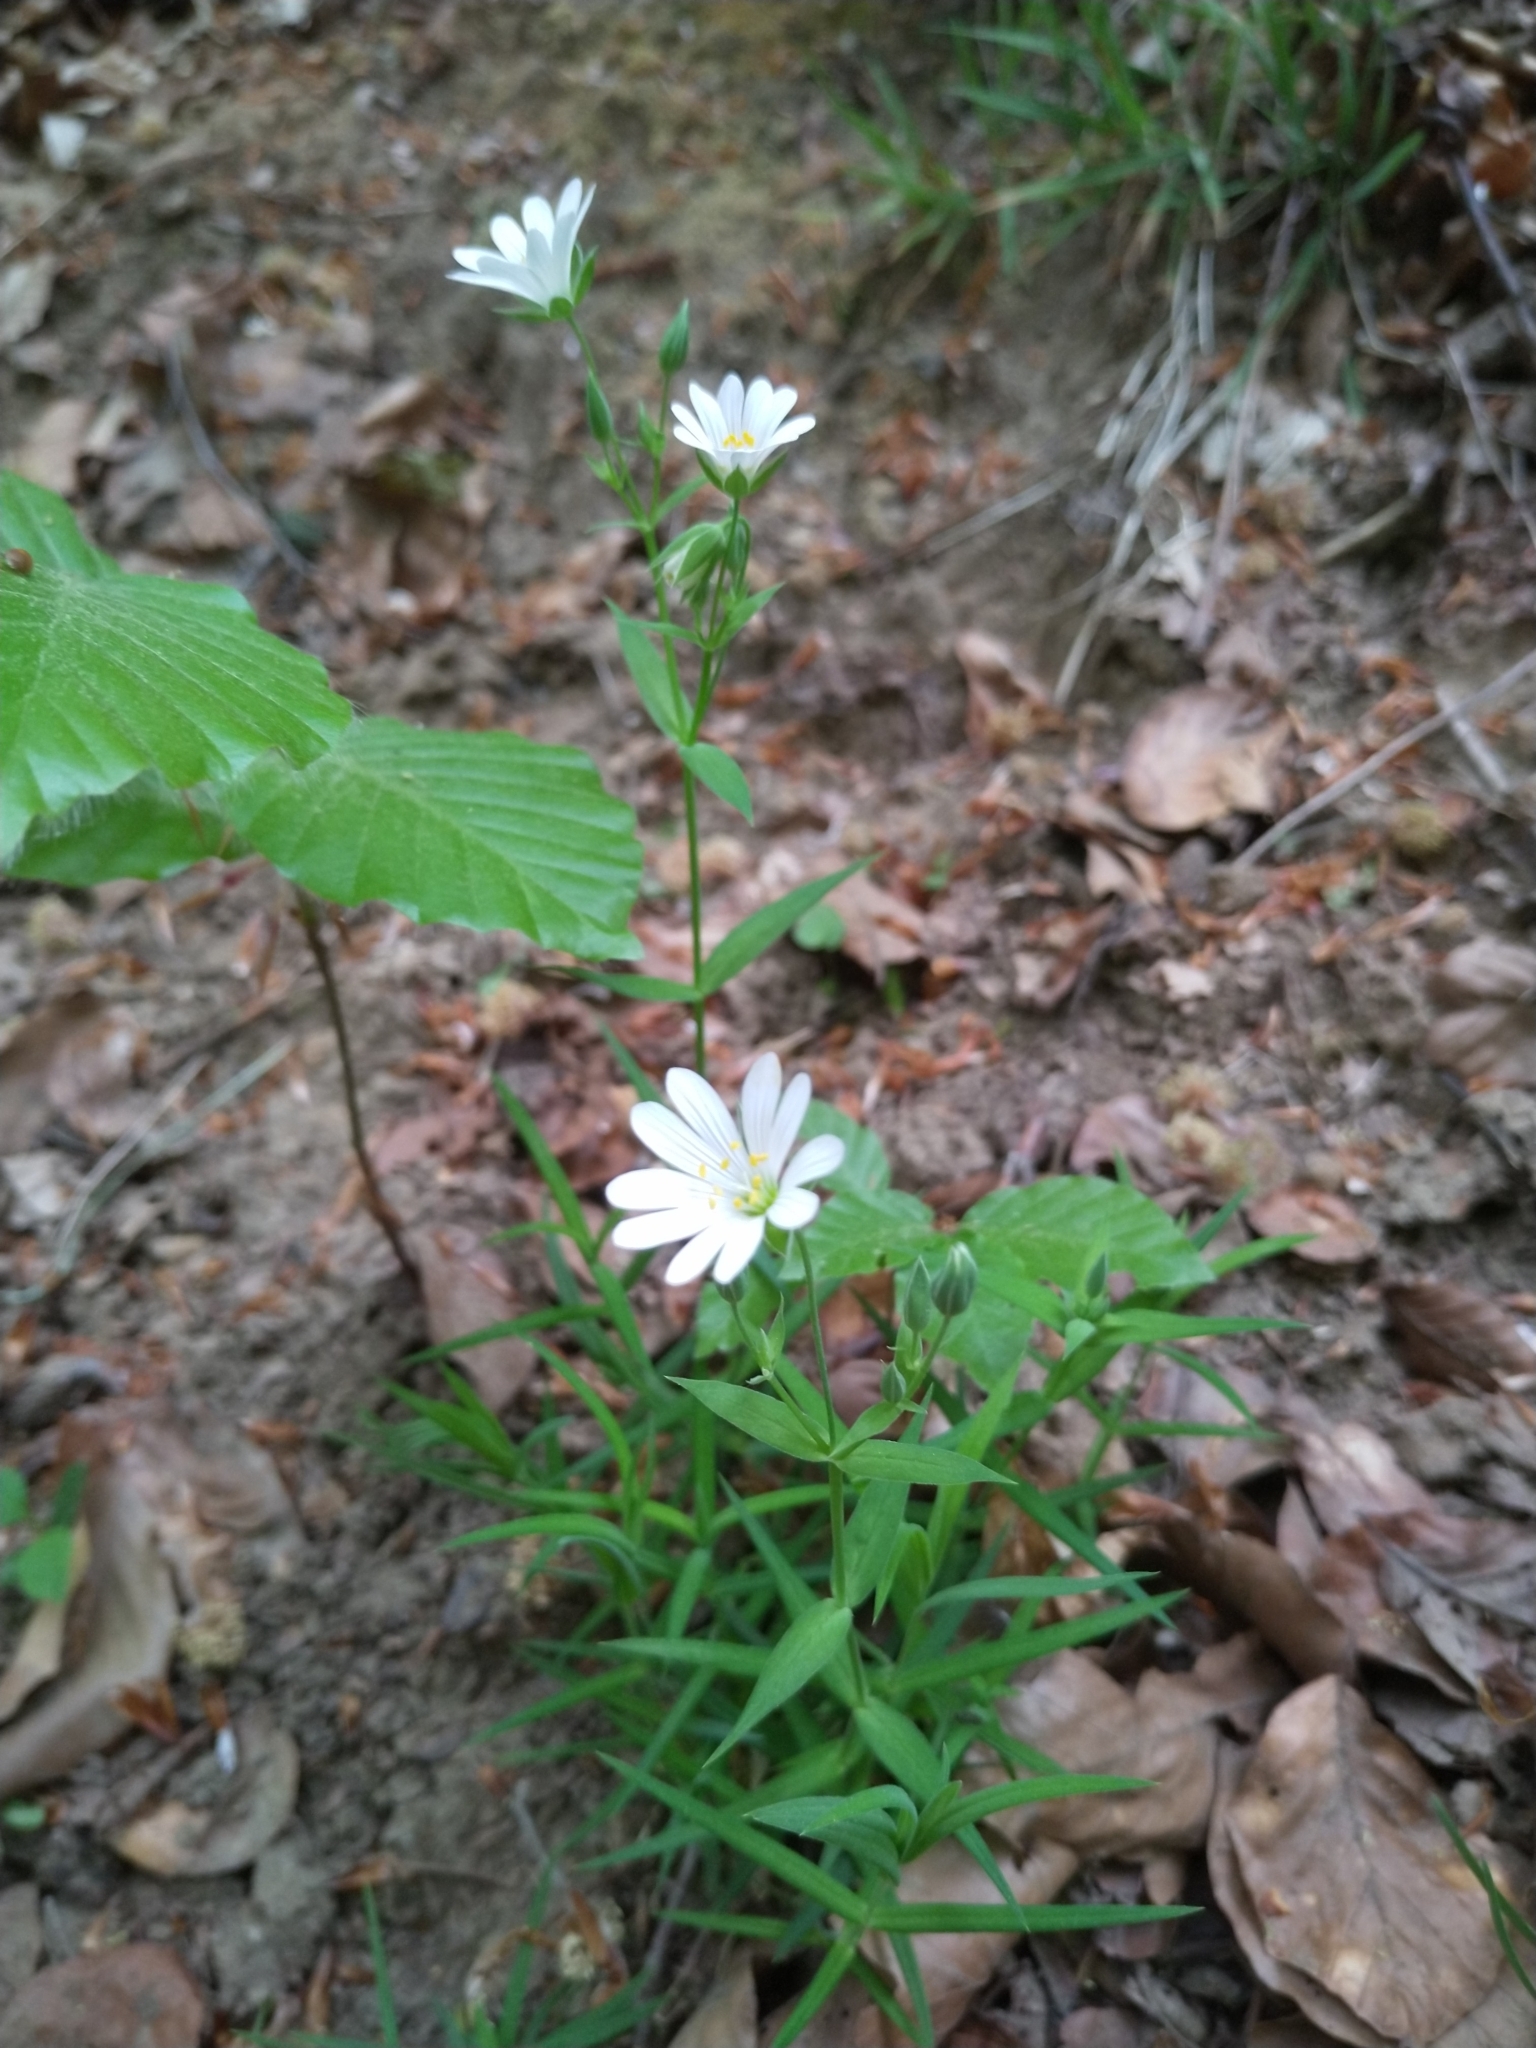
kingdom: Plantae
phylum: Tracheophyta
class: Magnoliopsida
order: Caryophyllales
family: Caryophyllaceae
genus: Rabelera
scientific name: Rabelera holostea
